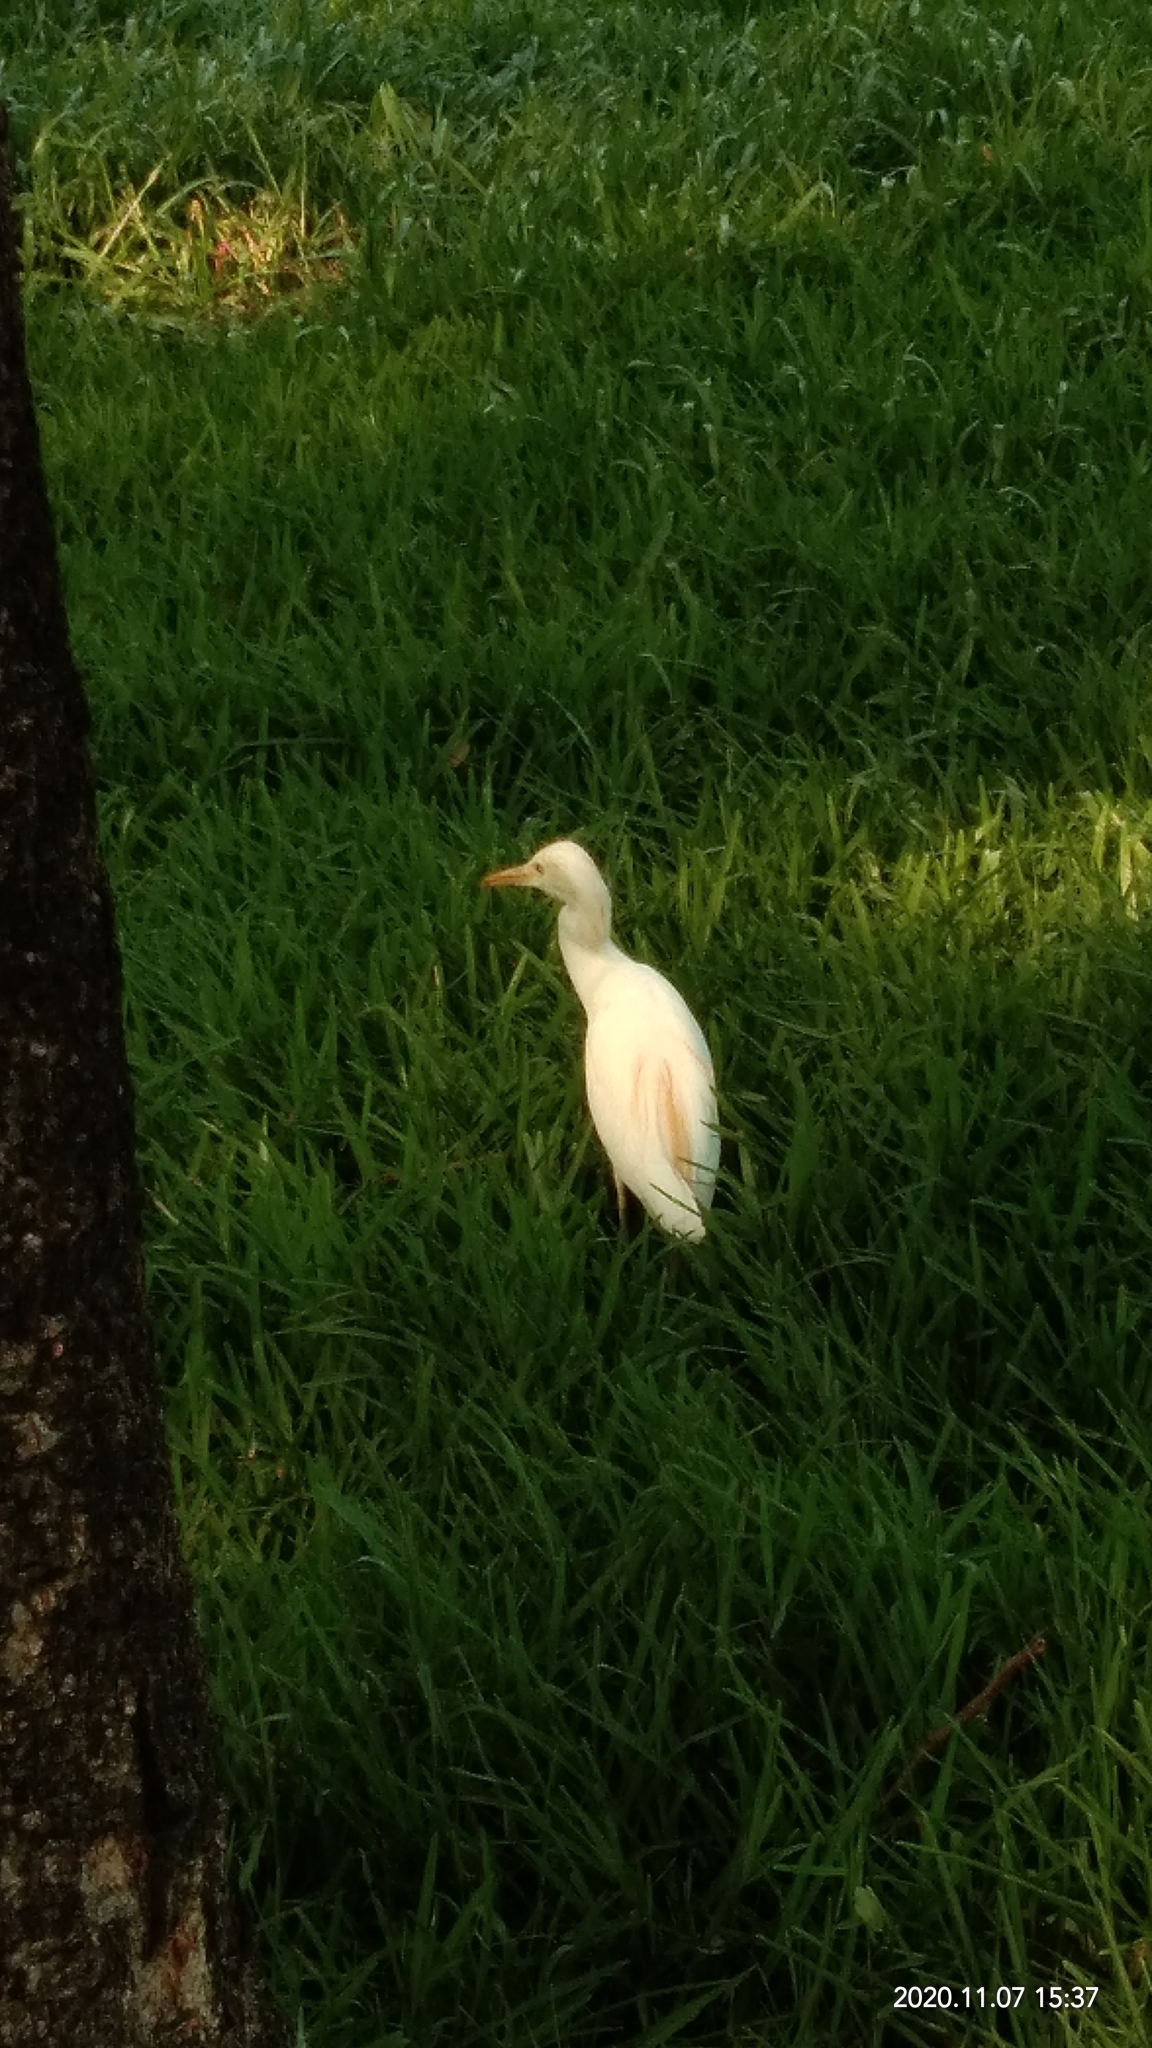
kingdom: Animalia
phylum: Chordata
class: Aves
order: Pelecaniformes
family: Ardeidae
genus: Bubulcus
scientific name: Bubulcus coromandus
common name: Eastern cattle egret
